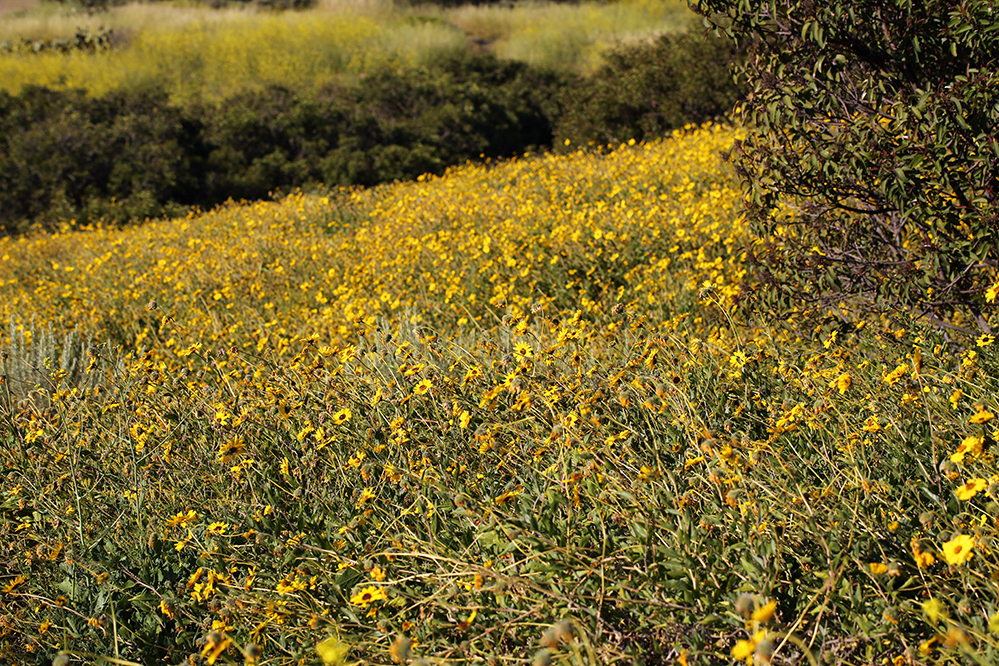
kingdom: Plantae
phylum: Tracheophyta
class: Magnoliopsida
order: Asterales
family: Asteraceae
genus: Encelia
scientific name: Encelia californica
